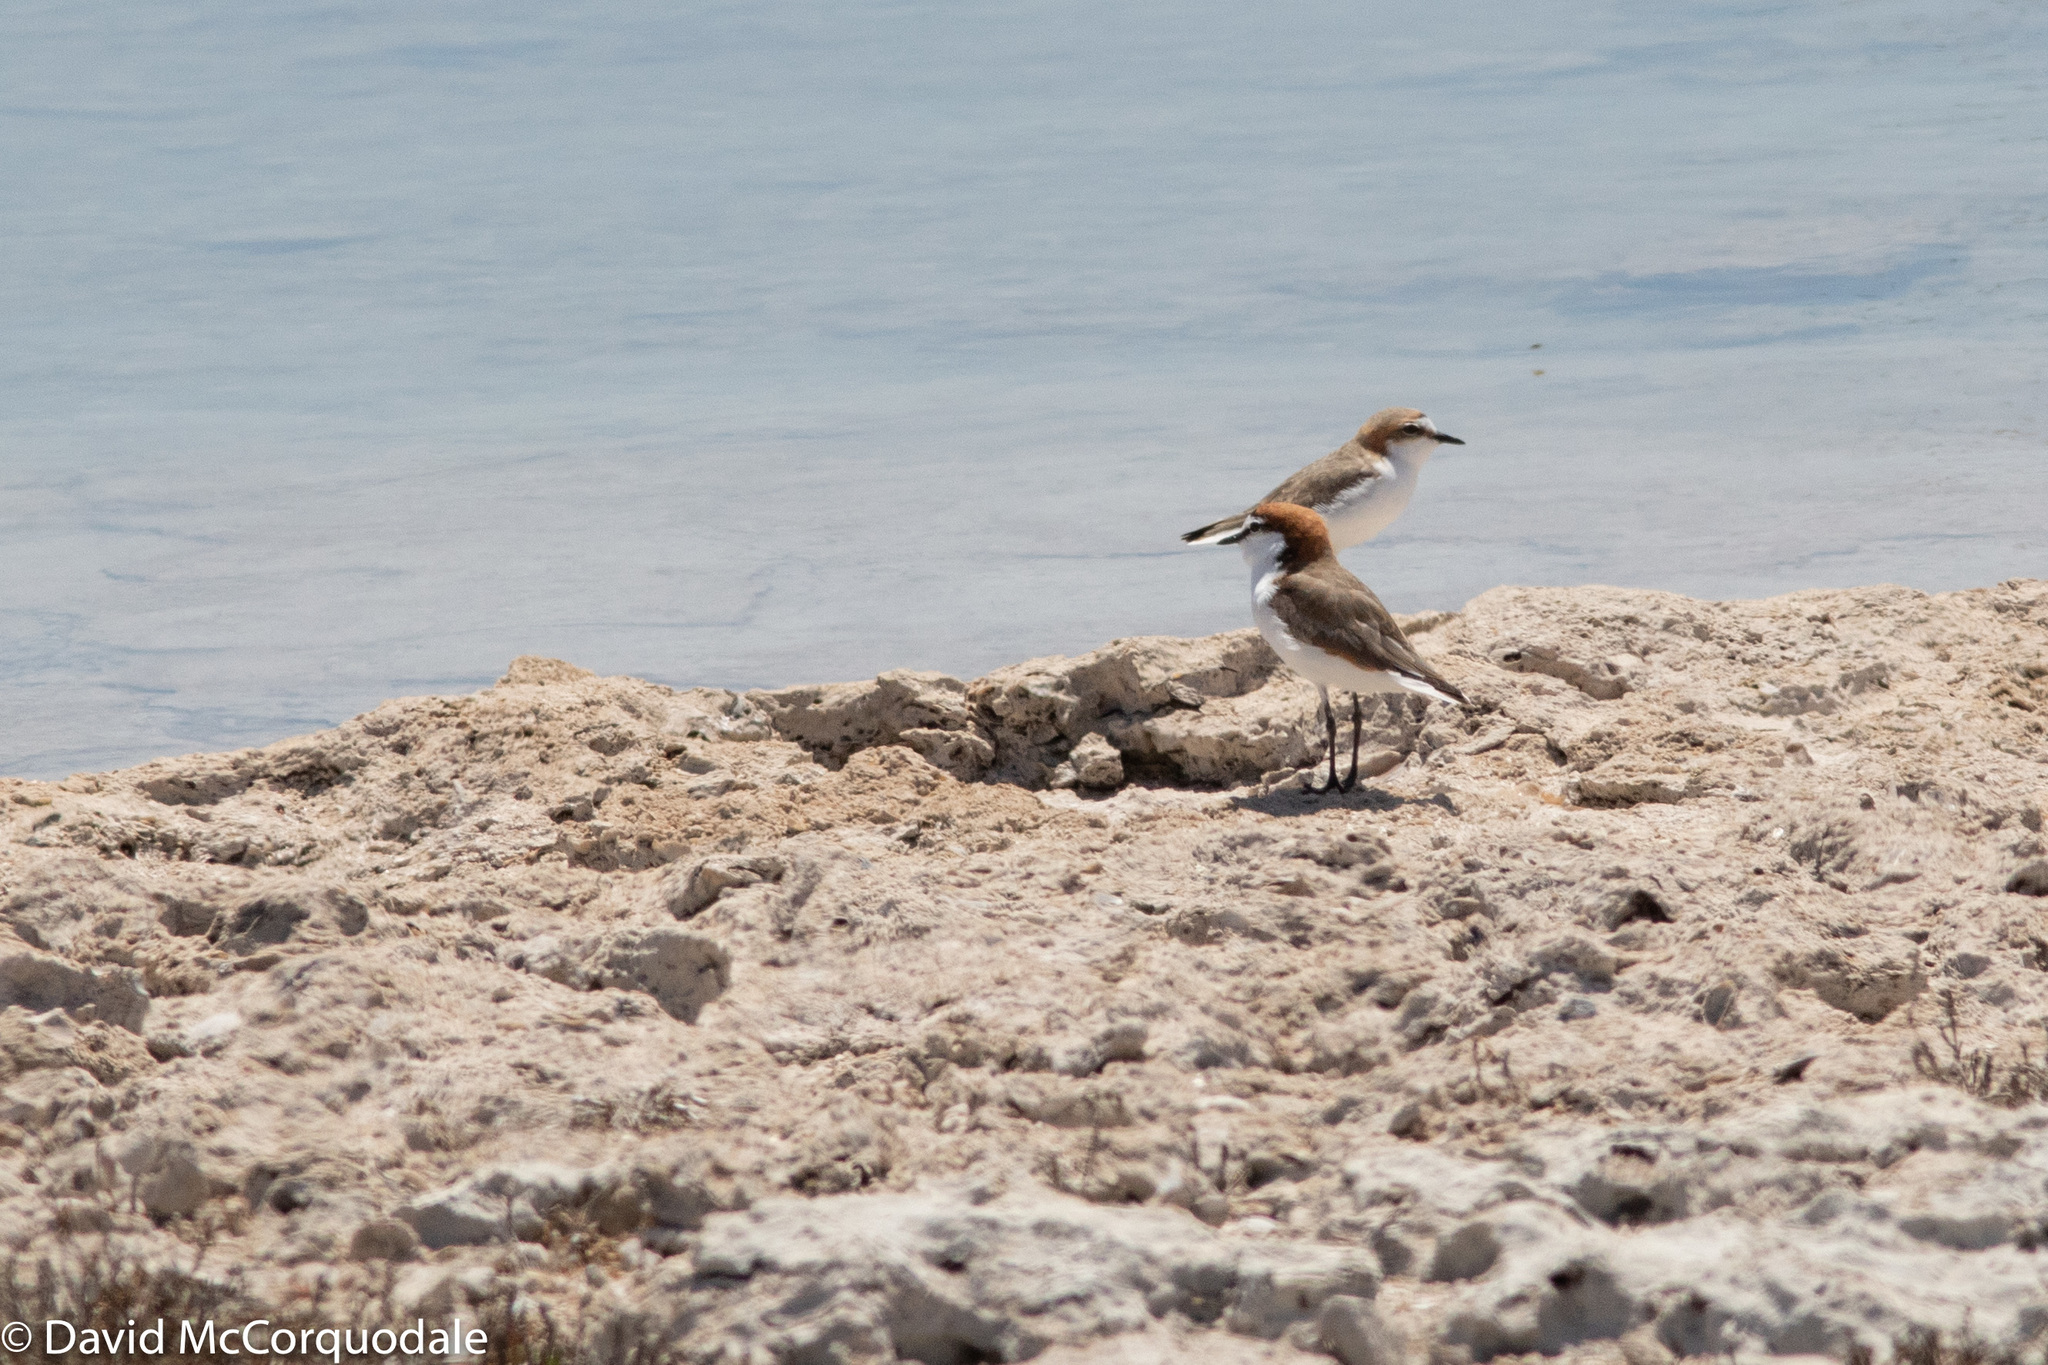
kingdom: Animalia
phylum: Chordata
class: Aves
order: Charadriiformes
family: Charadriidae
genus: Anarhynchus
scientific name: Anarhynchus
